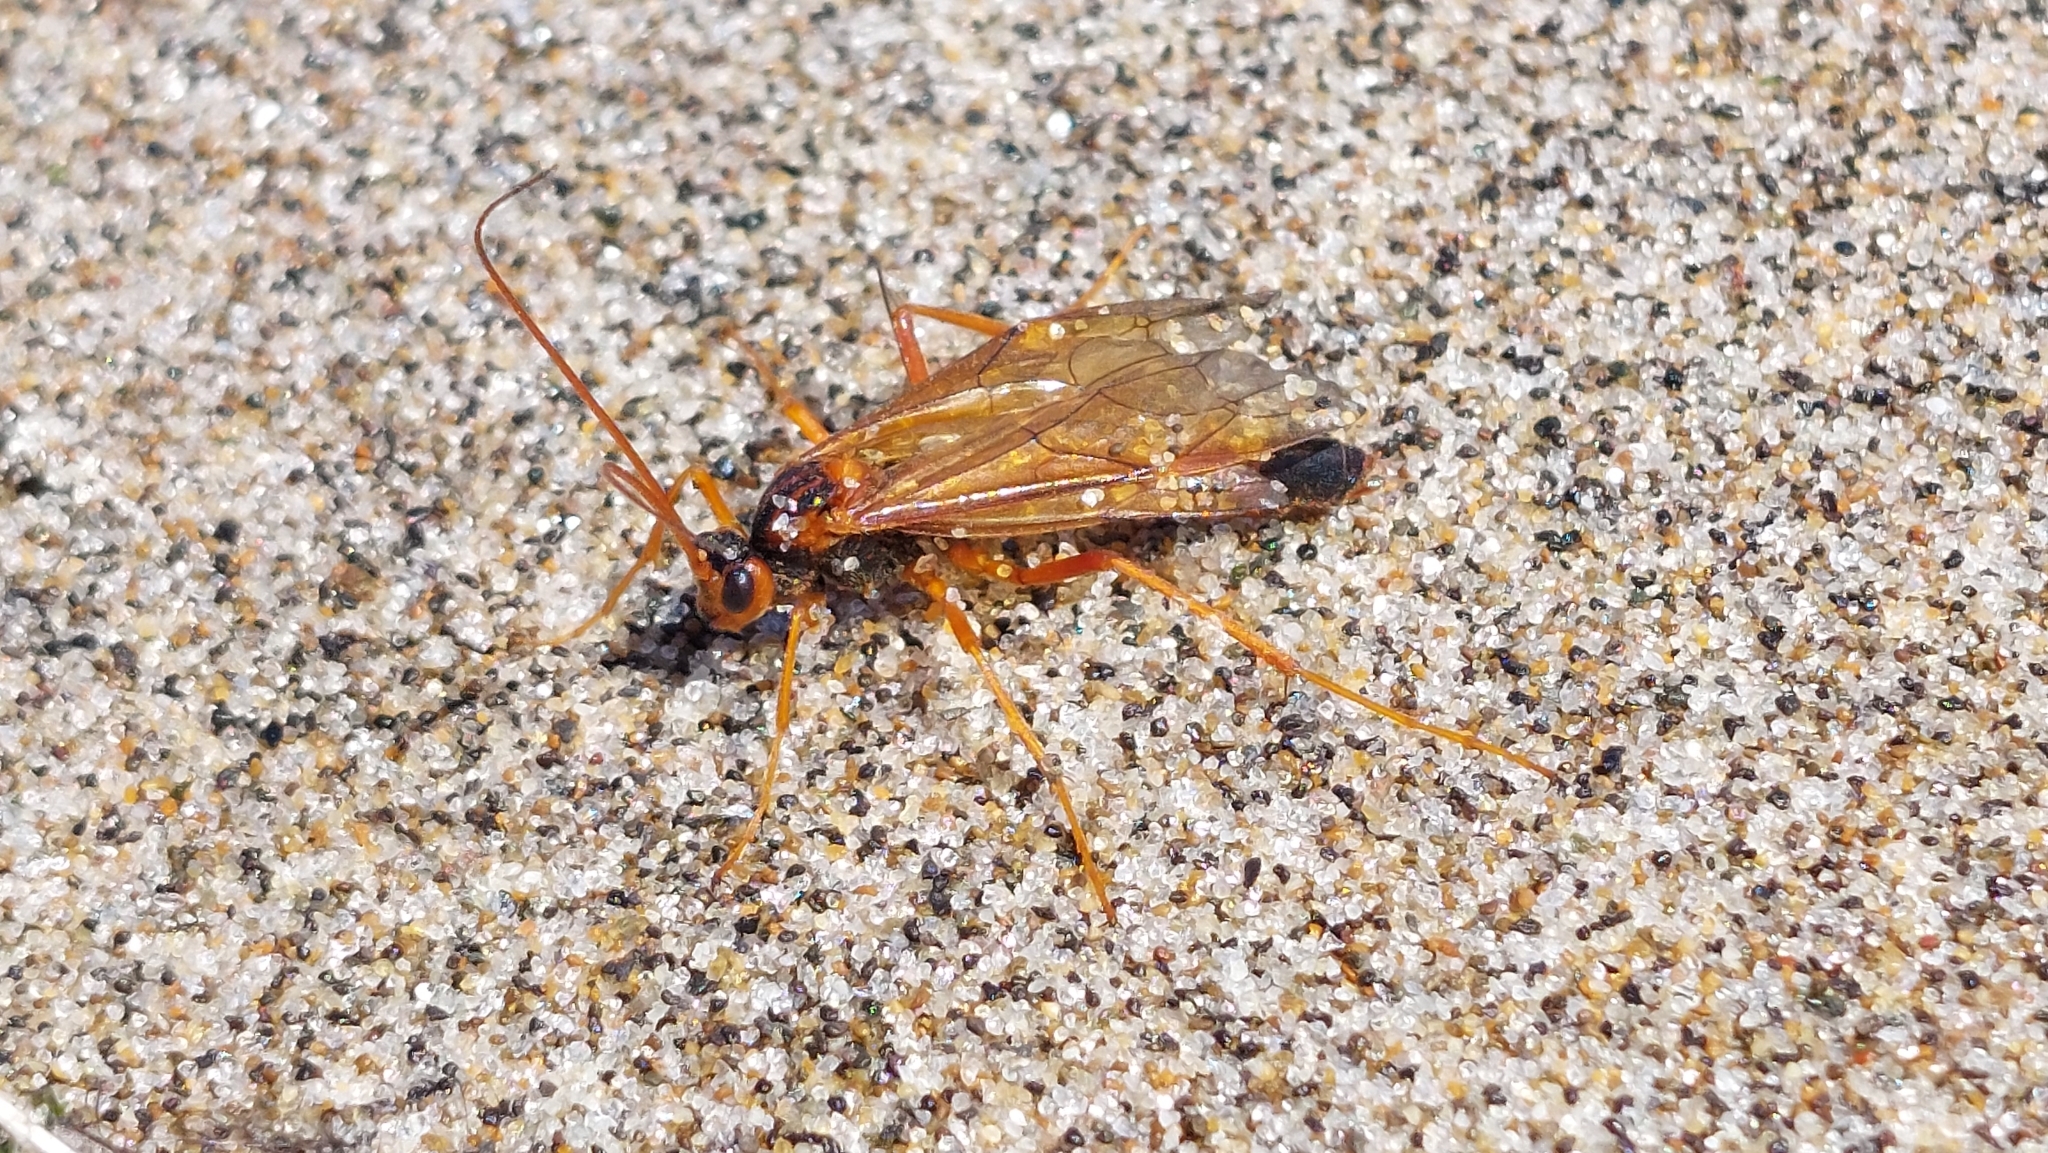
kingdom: Animalia
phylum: Arthropoda
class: Insecta
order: Hymenoptera
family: Ichneumonidae
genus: Opheltes
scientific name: Opheltes glaucopterus
